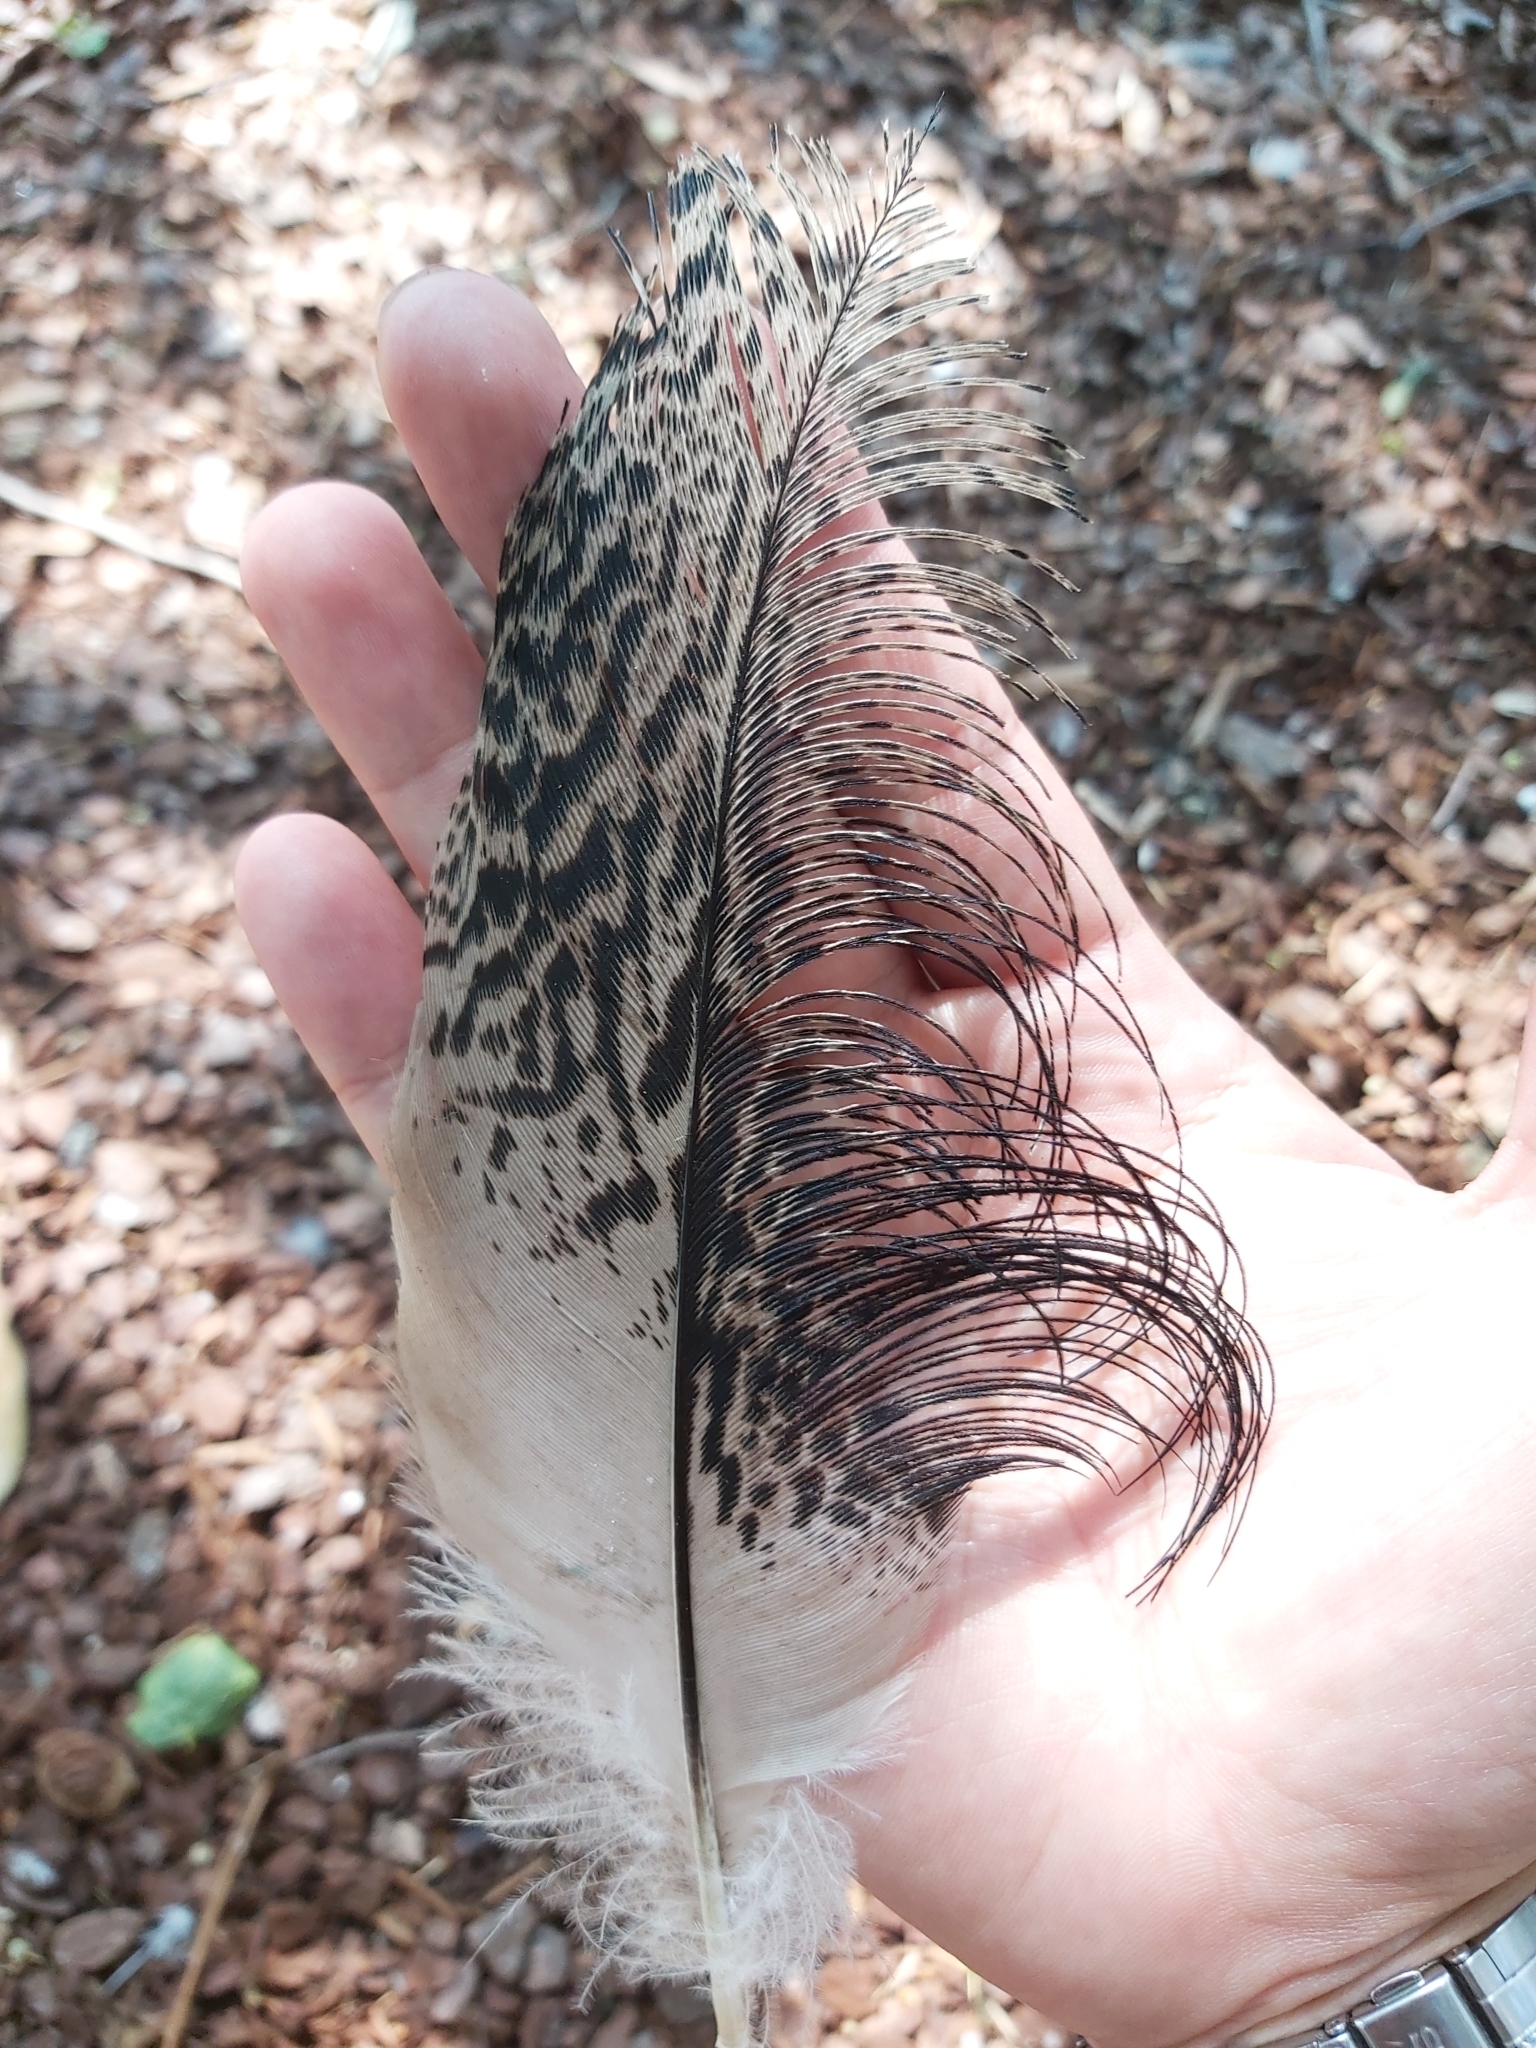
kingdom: Animalia
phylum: Chordata
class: Aves
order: Pelecaniformes
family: Threskiornithidae
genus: Threskiornis
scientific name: Threskiornis molucca
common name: Australian white ibis
